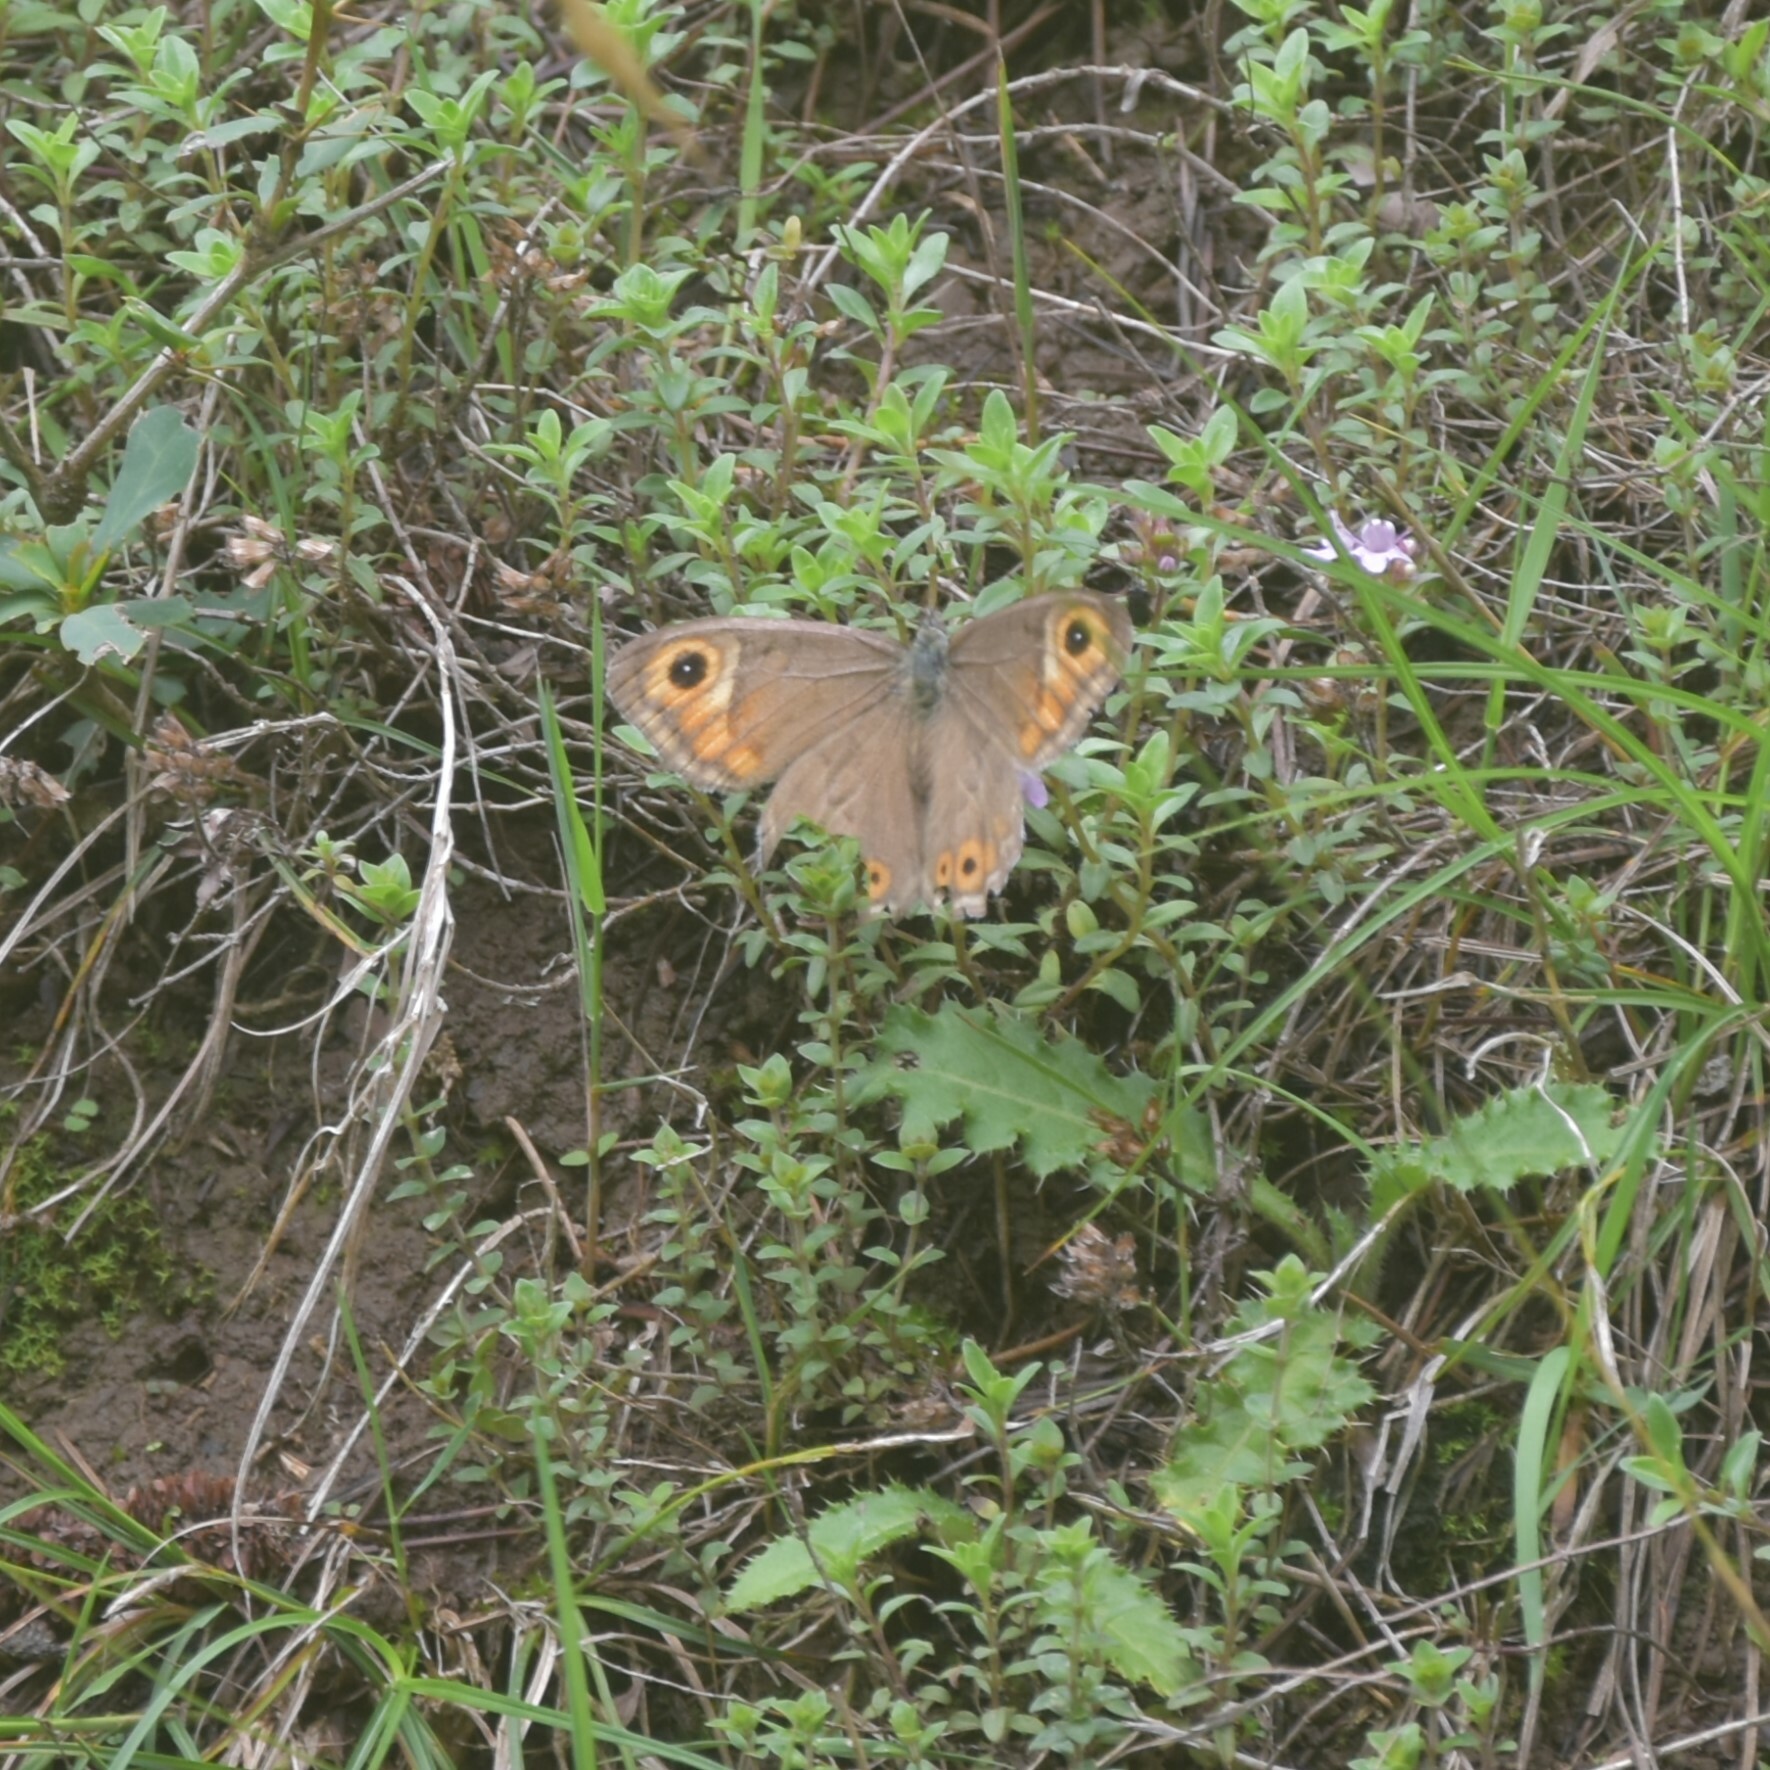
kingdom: Animalia
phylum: Arthropoda
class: Insecta
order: Lepidoptera
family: Nymphalidae
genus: Pararge
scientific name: Pararge Lasiommata schakra
